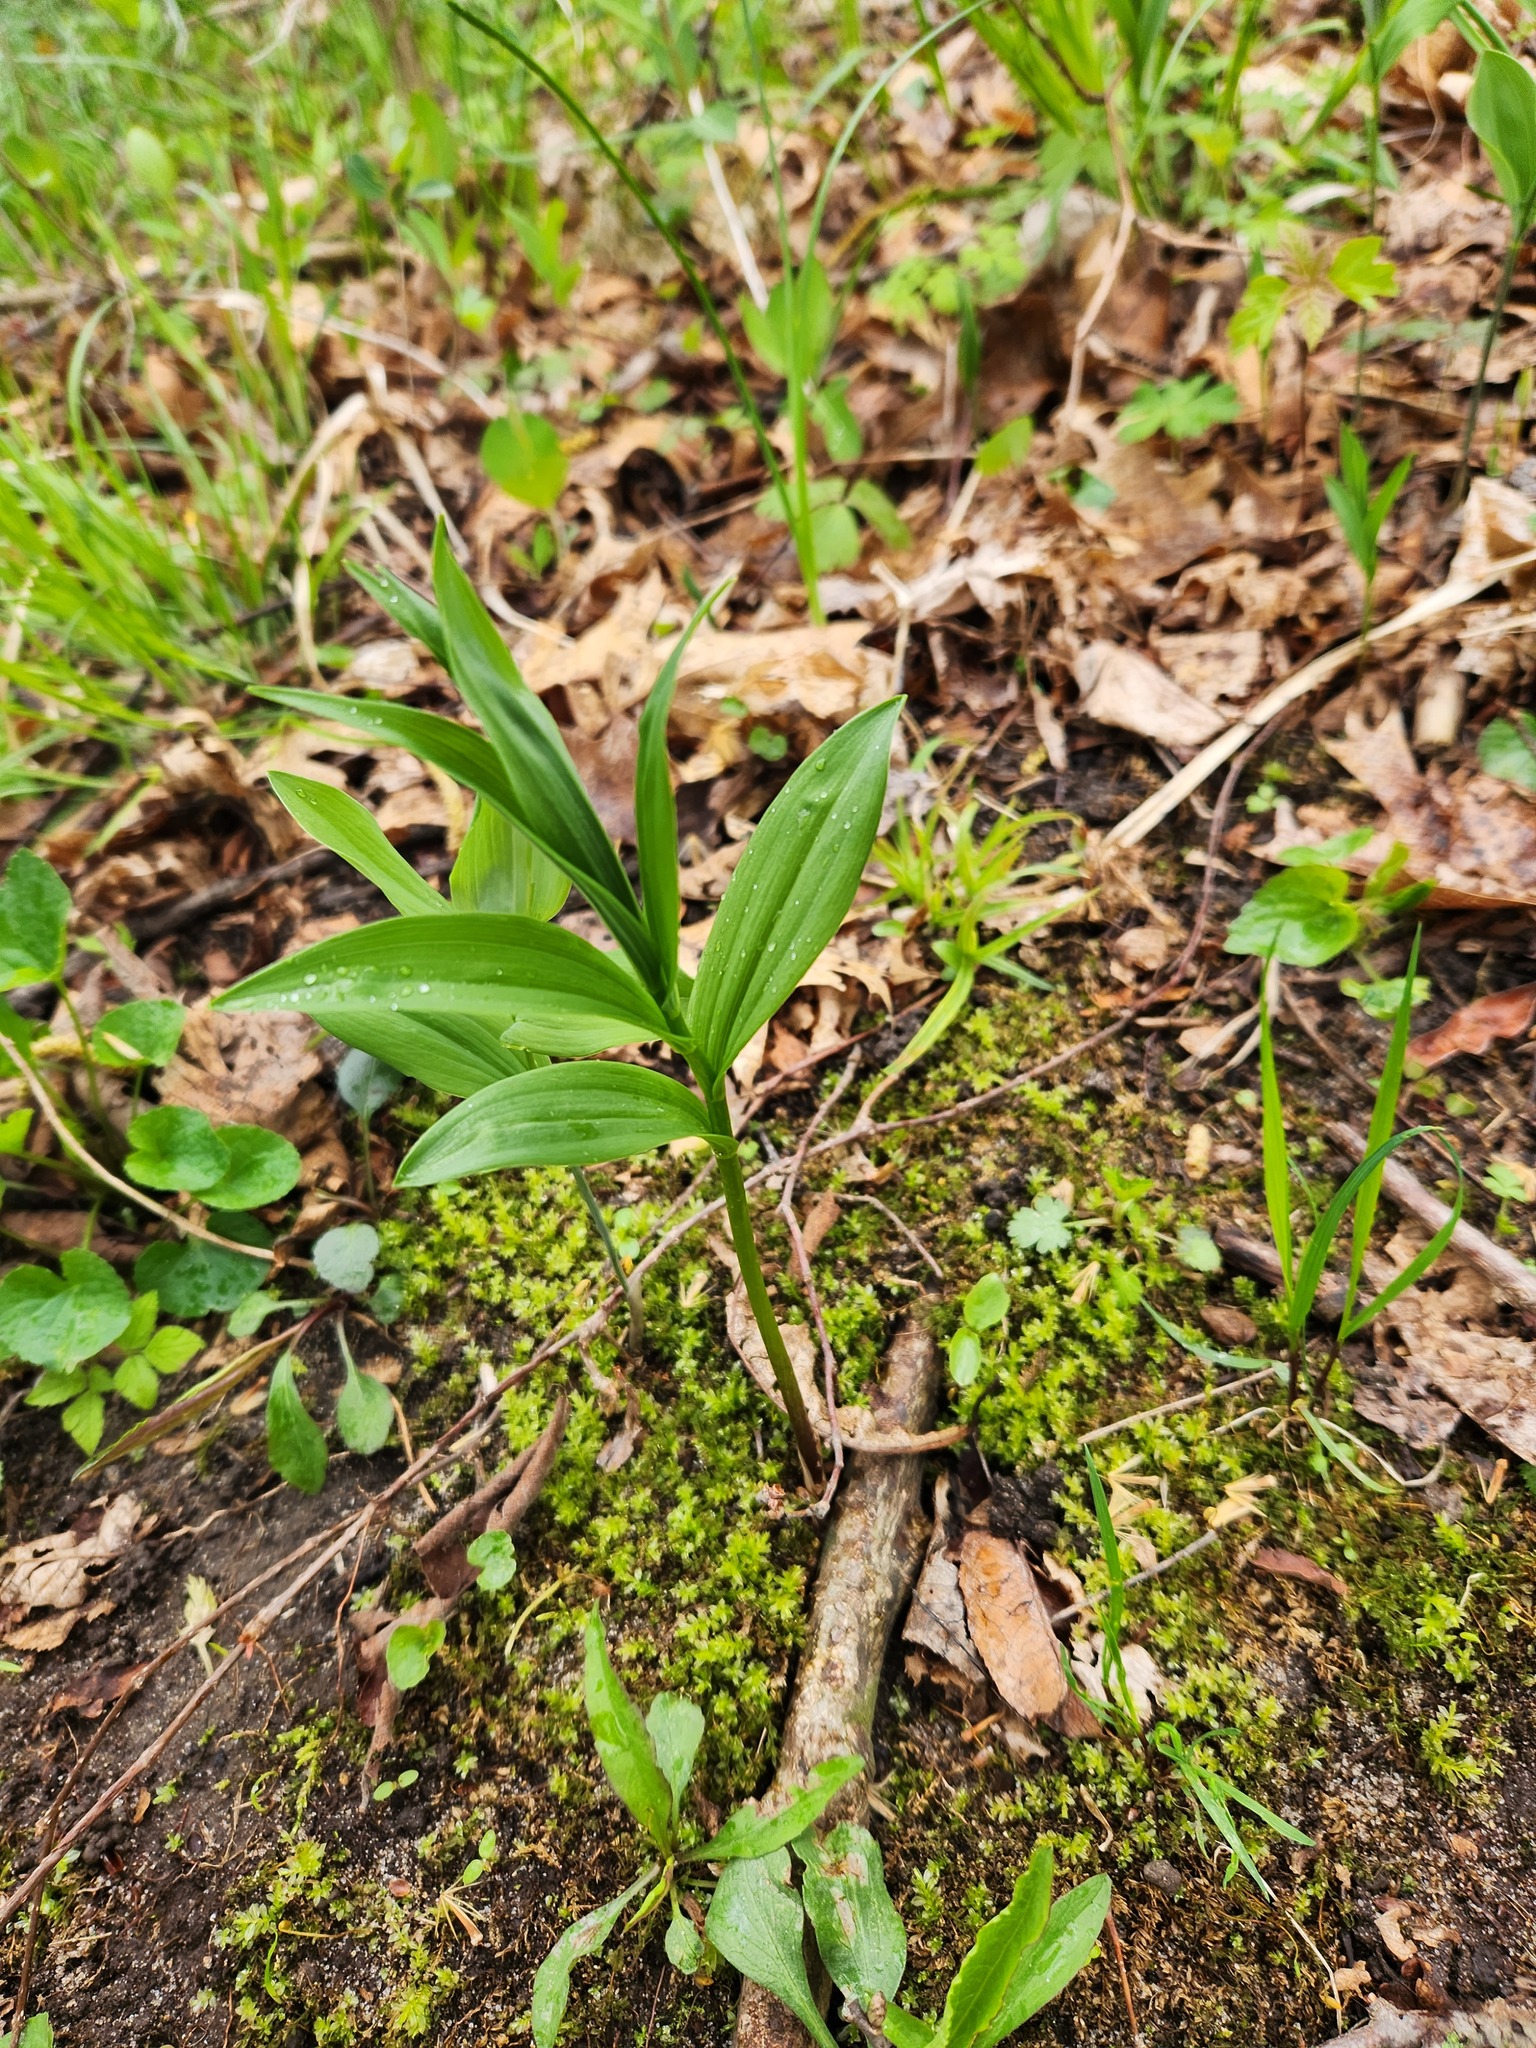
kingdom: Plantae
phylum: Tracheophyta
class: Liliopsida
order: Asparagales
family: Asparagaceae
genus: Maianthemum
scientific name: Maianthemum stellatum
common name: Little false solomon's seal
